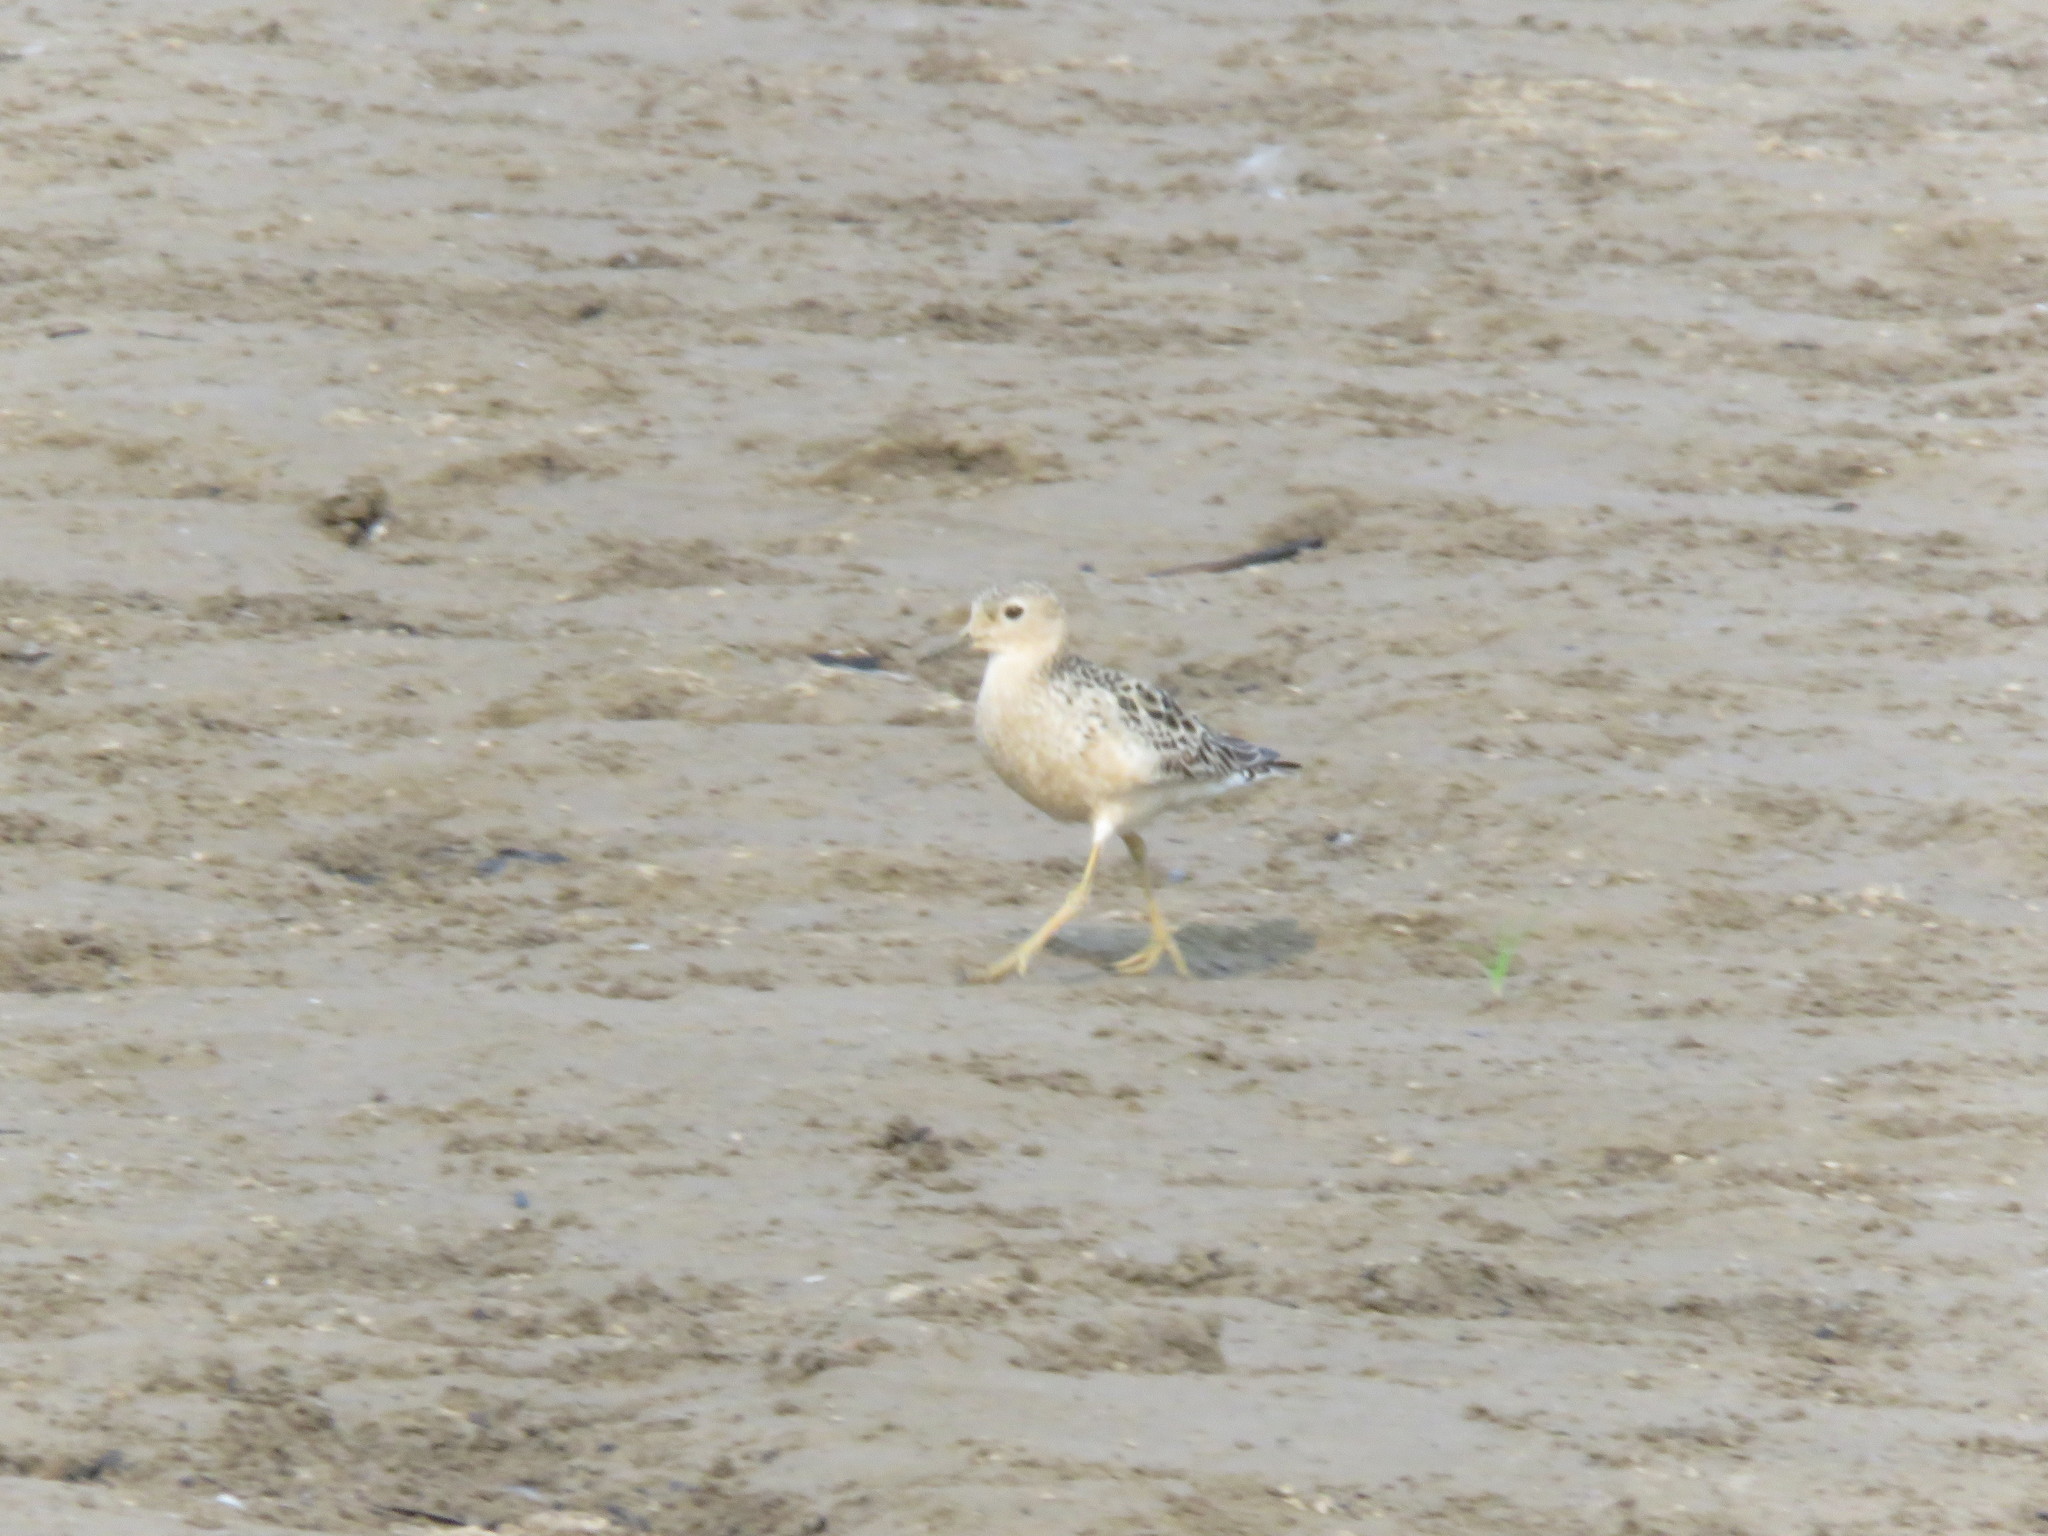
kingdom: Animalia
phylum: Chordata
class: Aves
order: Charadriiformes
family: Scolopacidae
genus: Calidris
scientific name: Calidris subruficollis
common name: Buff-breasted sandpiper
